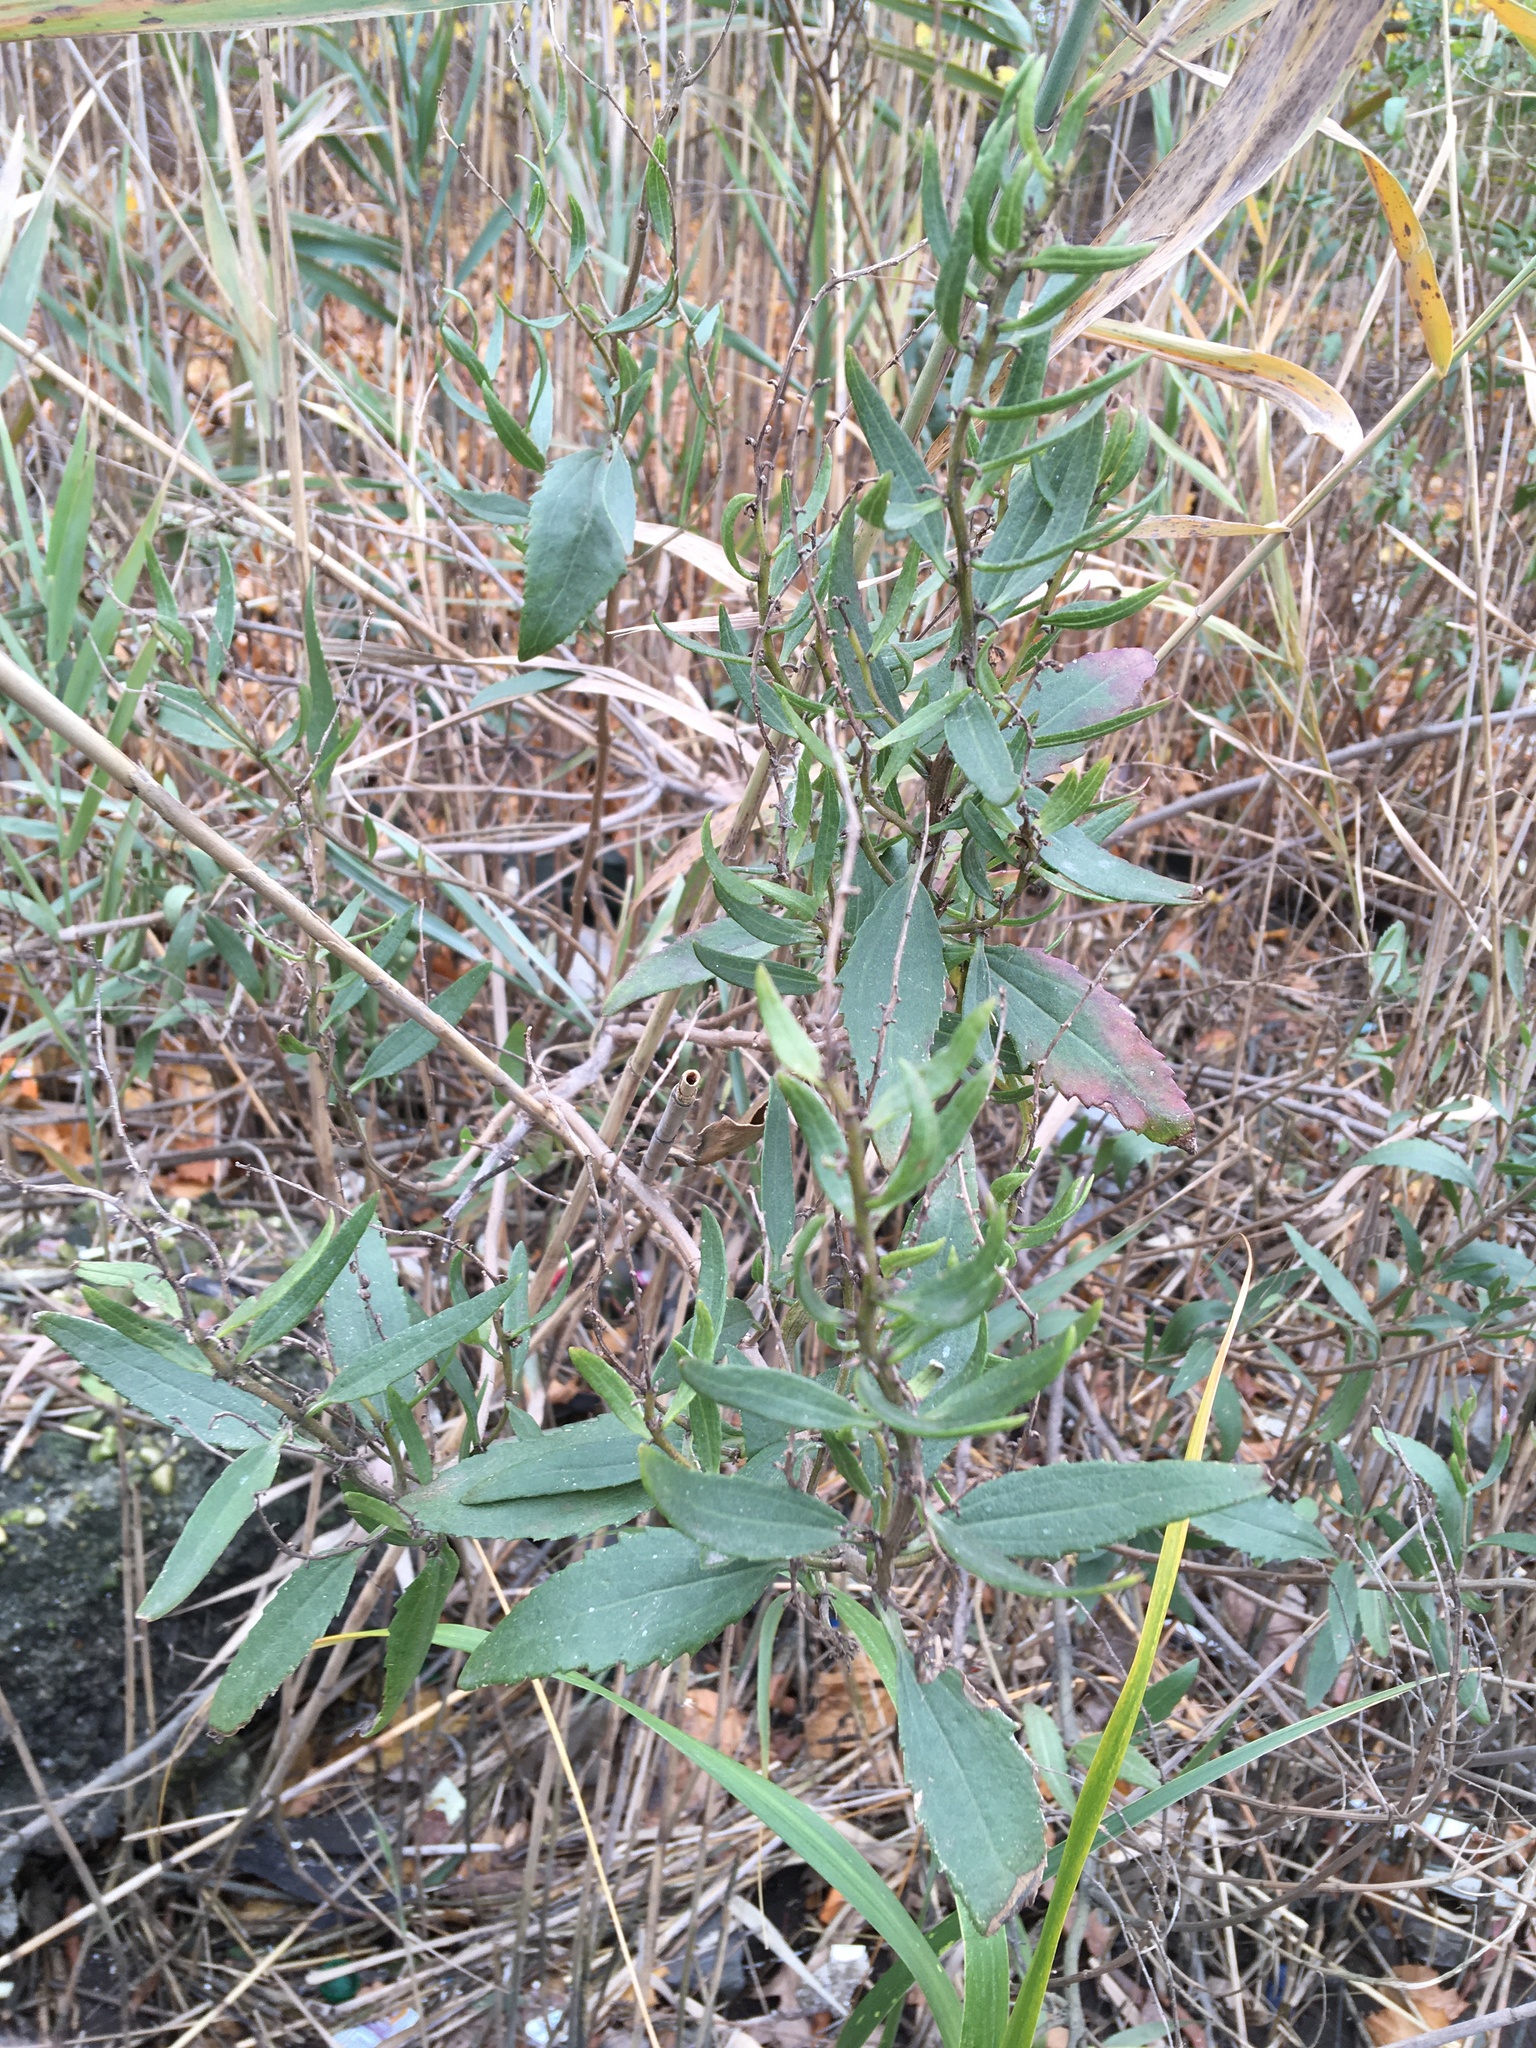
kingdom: Plantae
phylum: Tracheophyta
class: Magnoliopsida
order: Asterales
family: Asteraceae
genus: Iva
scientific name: Iva frutescens
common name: Big-leaved marsh-elder
